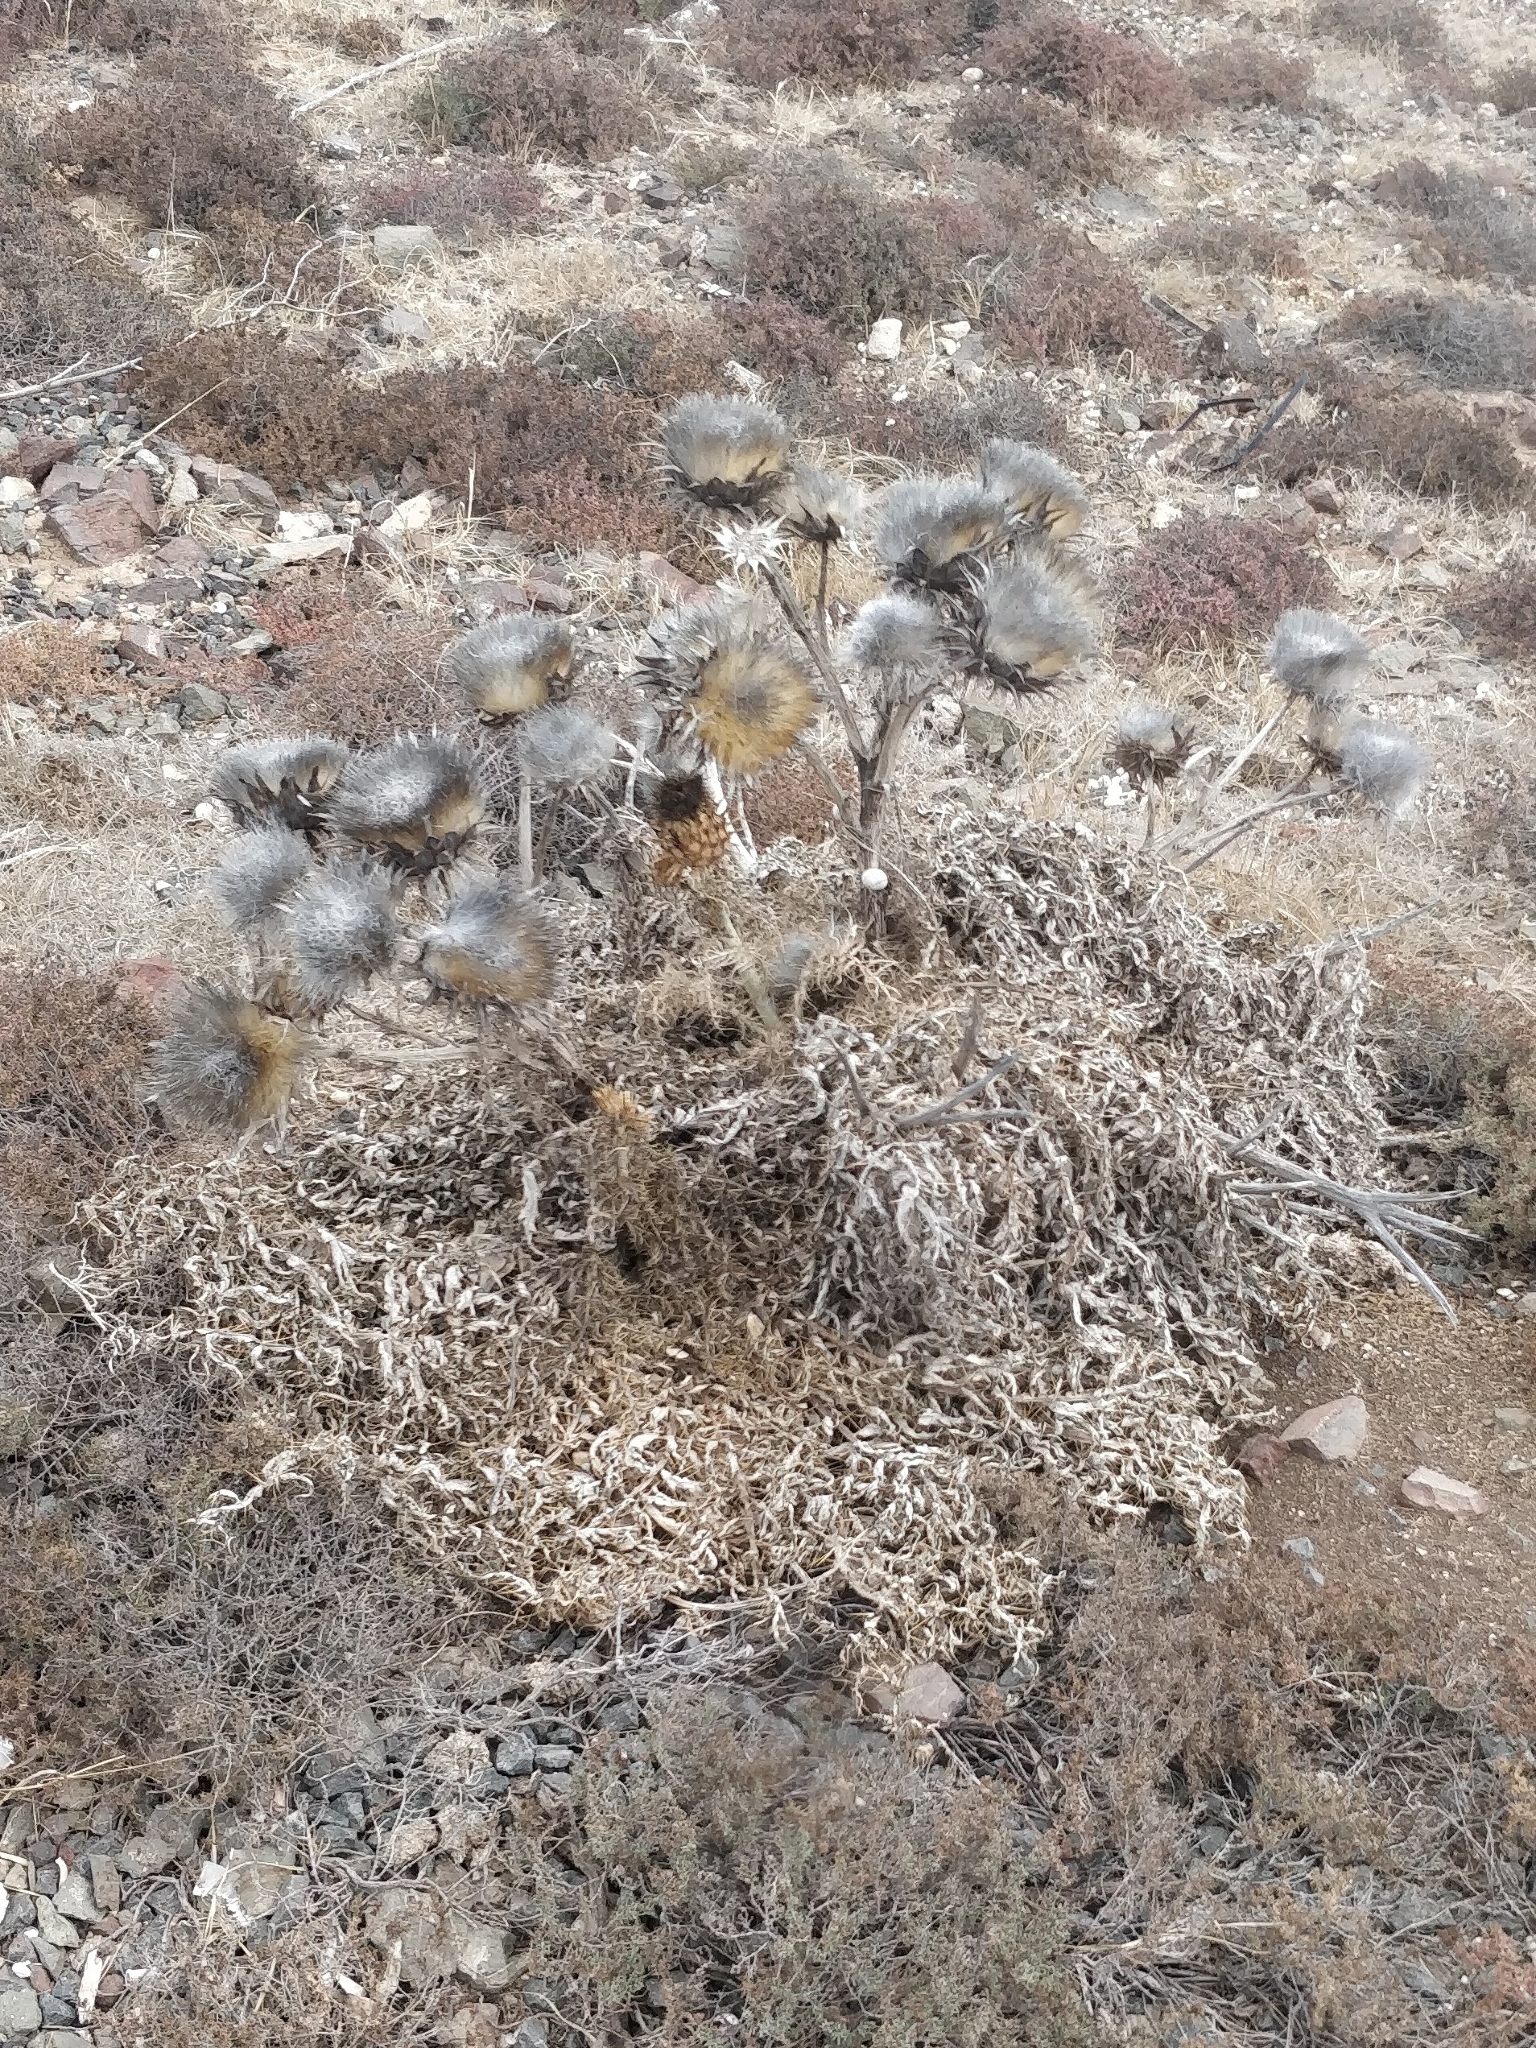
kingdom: Plantae
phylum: Tracheophyta
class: Magnoliopsida
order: Asterales
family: Asteraceae
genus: Cynara
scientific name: Cynara cardunculus
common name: Globe artichoke
